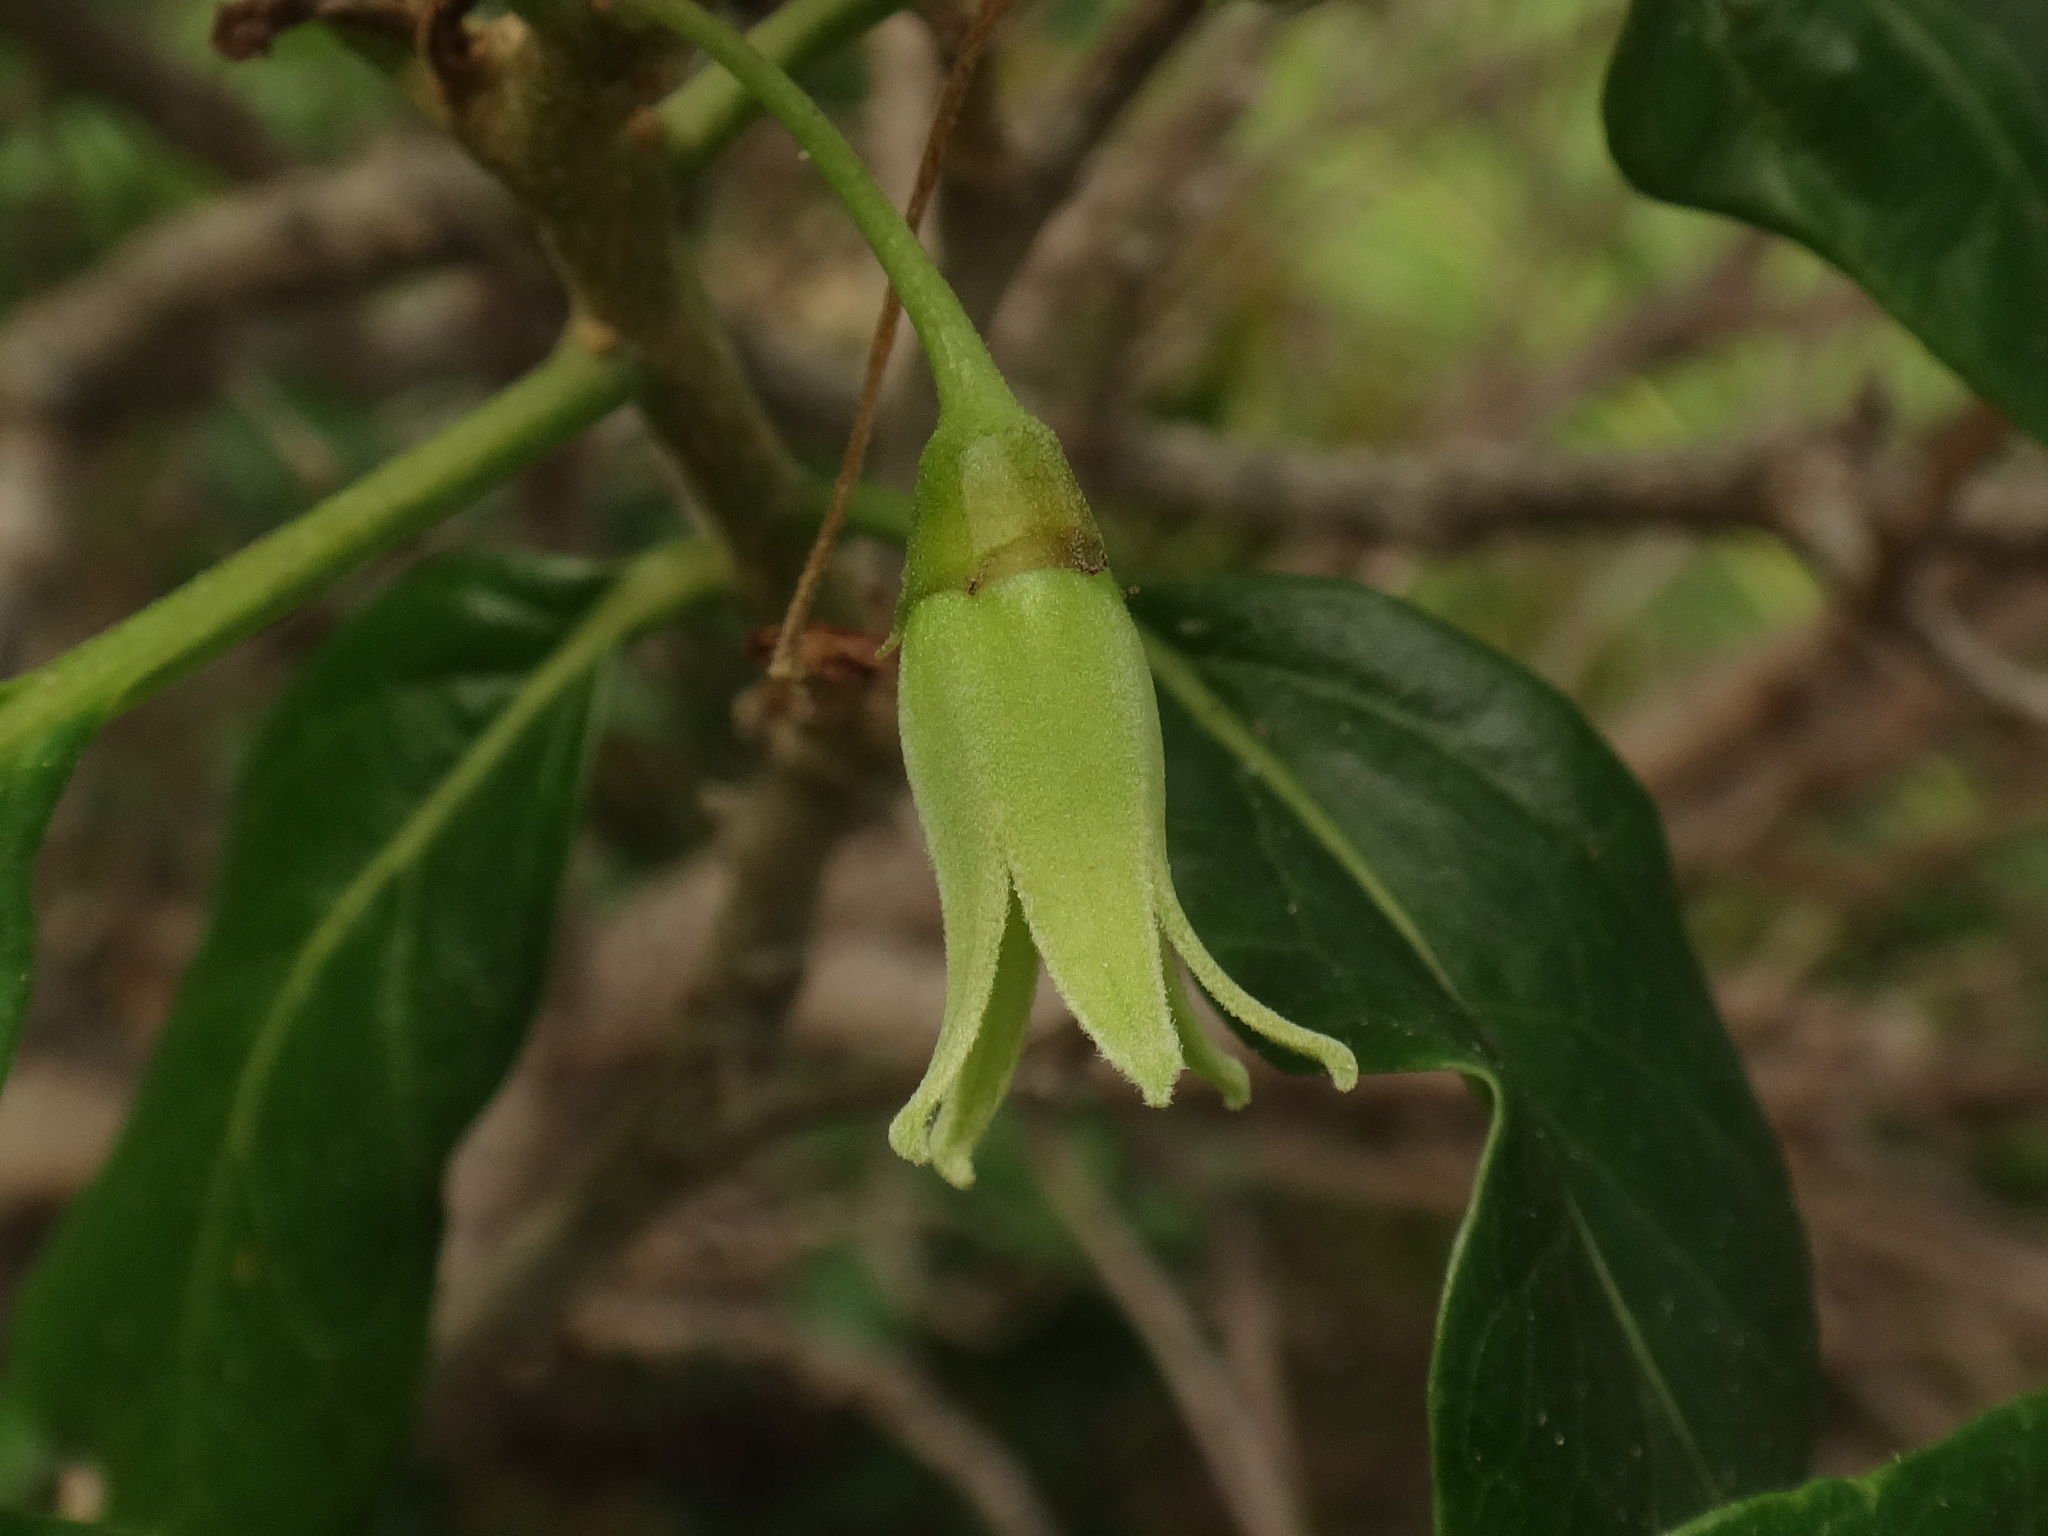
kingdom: Plantae
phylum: Tracheophyta
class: Magnoliopsida
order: Solanales
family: Solanaceae
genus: Withania
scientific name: Withania aristata
